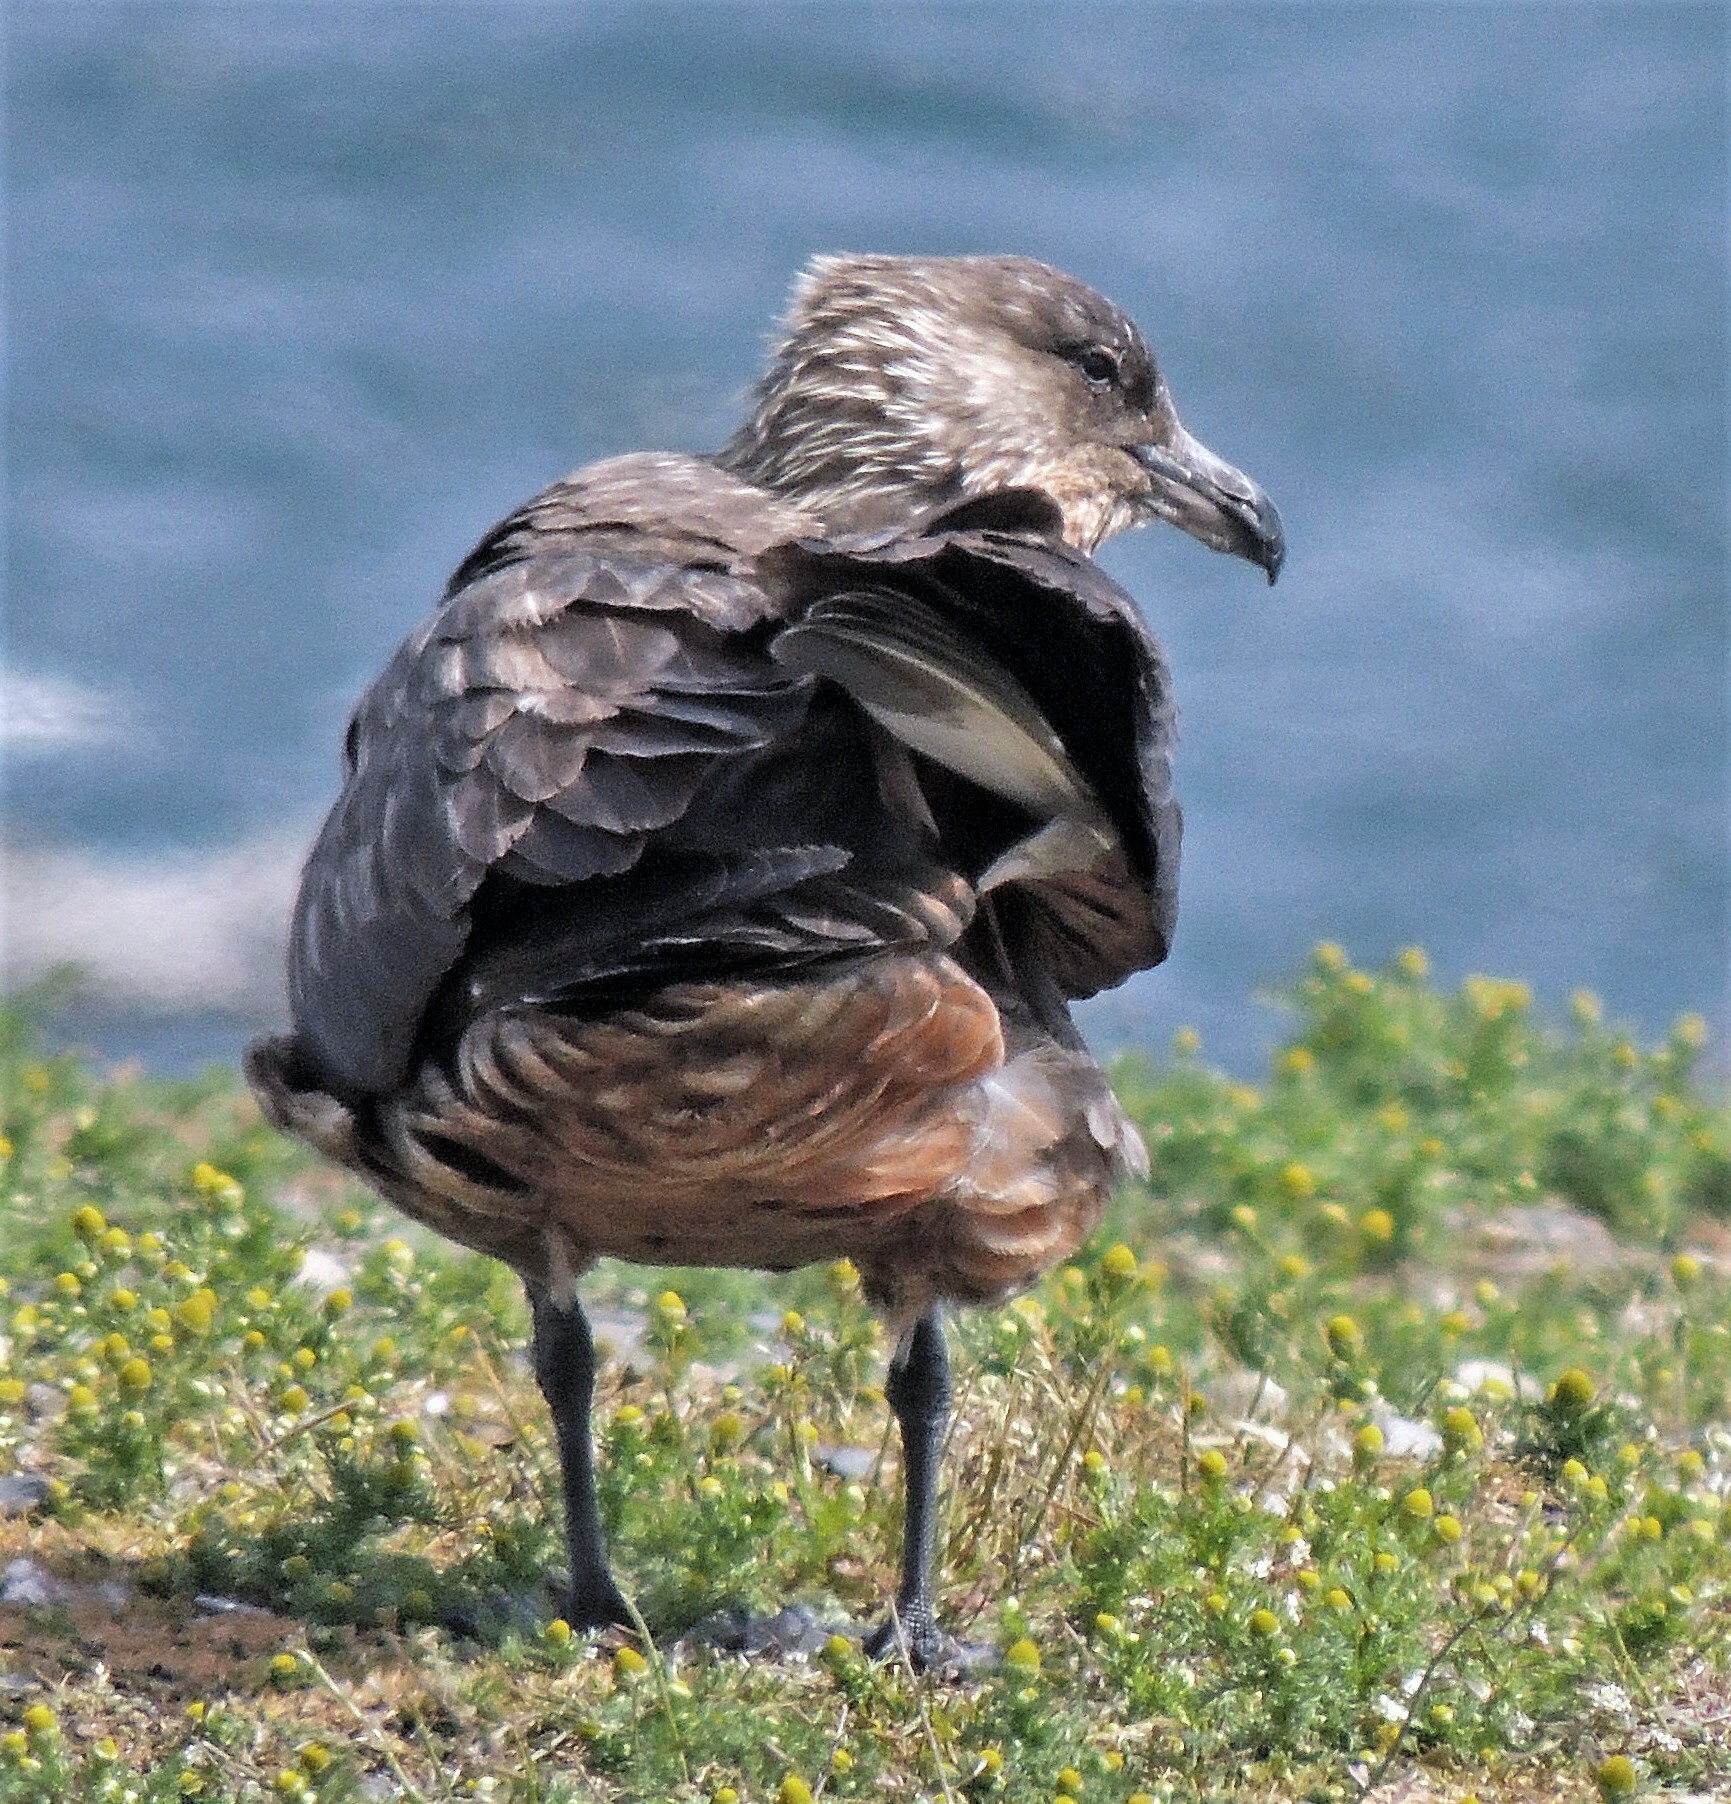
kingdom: Animalia
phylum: Chordata
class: Aves
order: Charadriiformes
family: Stercorariidae
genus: Stercorarius
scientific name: Stercorarius chilensis
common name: Chilean skua
